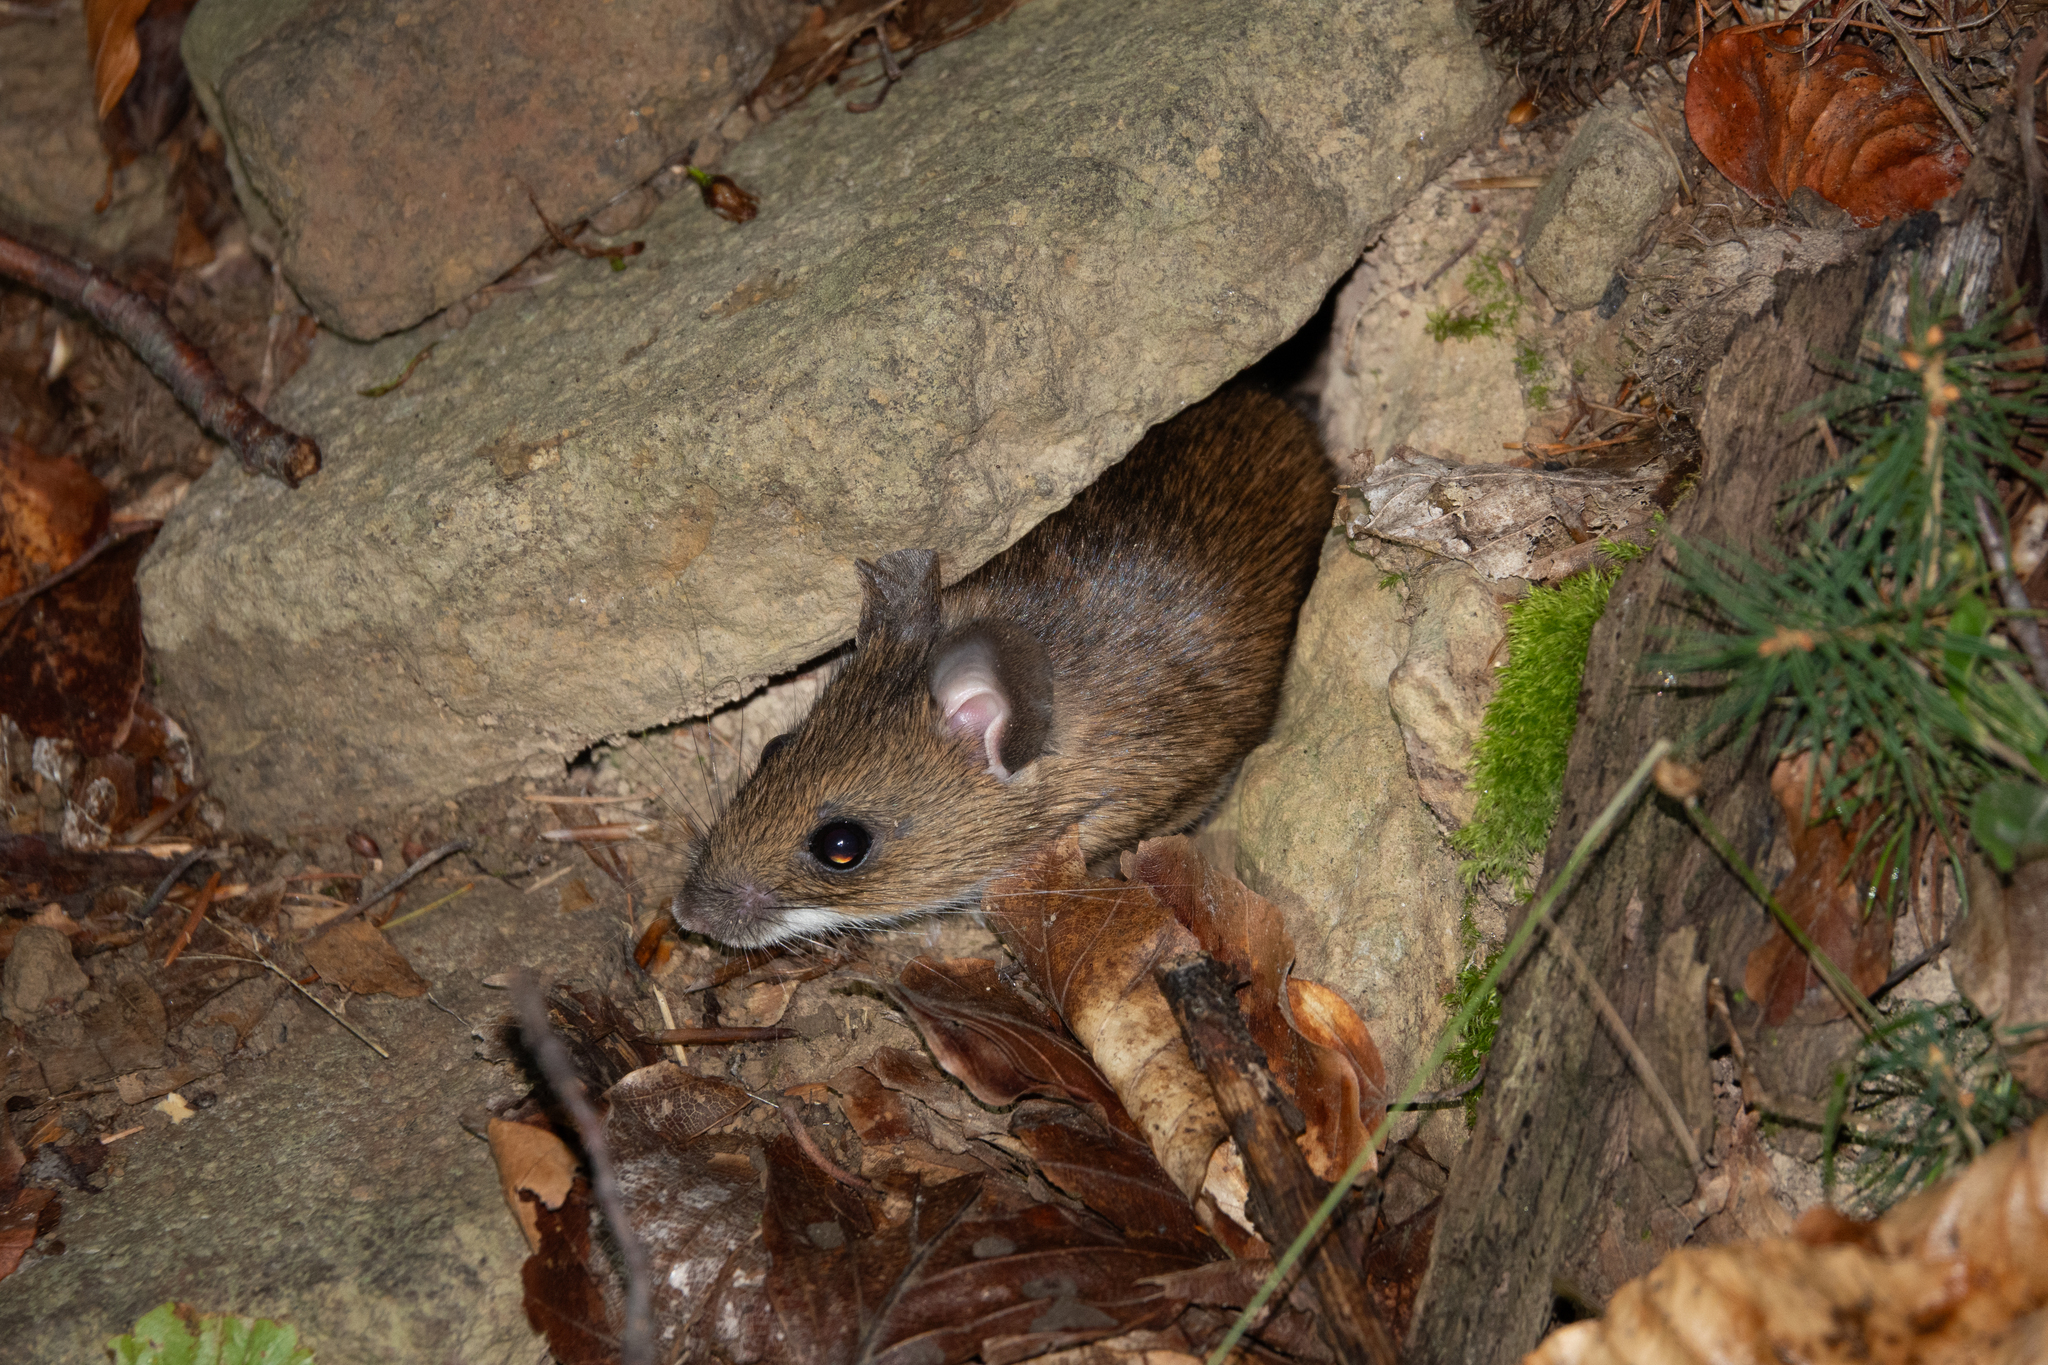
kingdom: Animalia
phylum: Chordata
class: Mammalia
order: Rodentia
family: Muridae
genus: Apodemus
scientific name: Apodemus agrarius
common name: Striped field mouse
